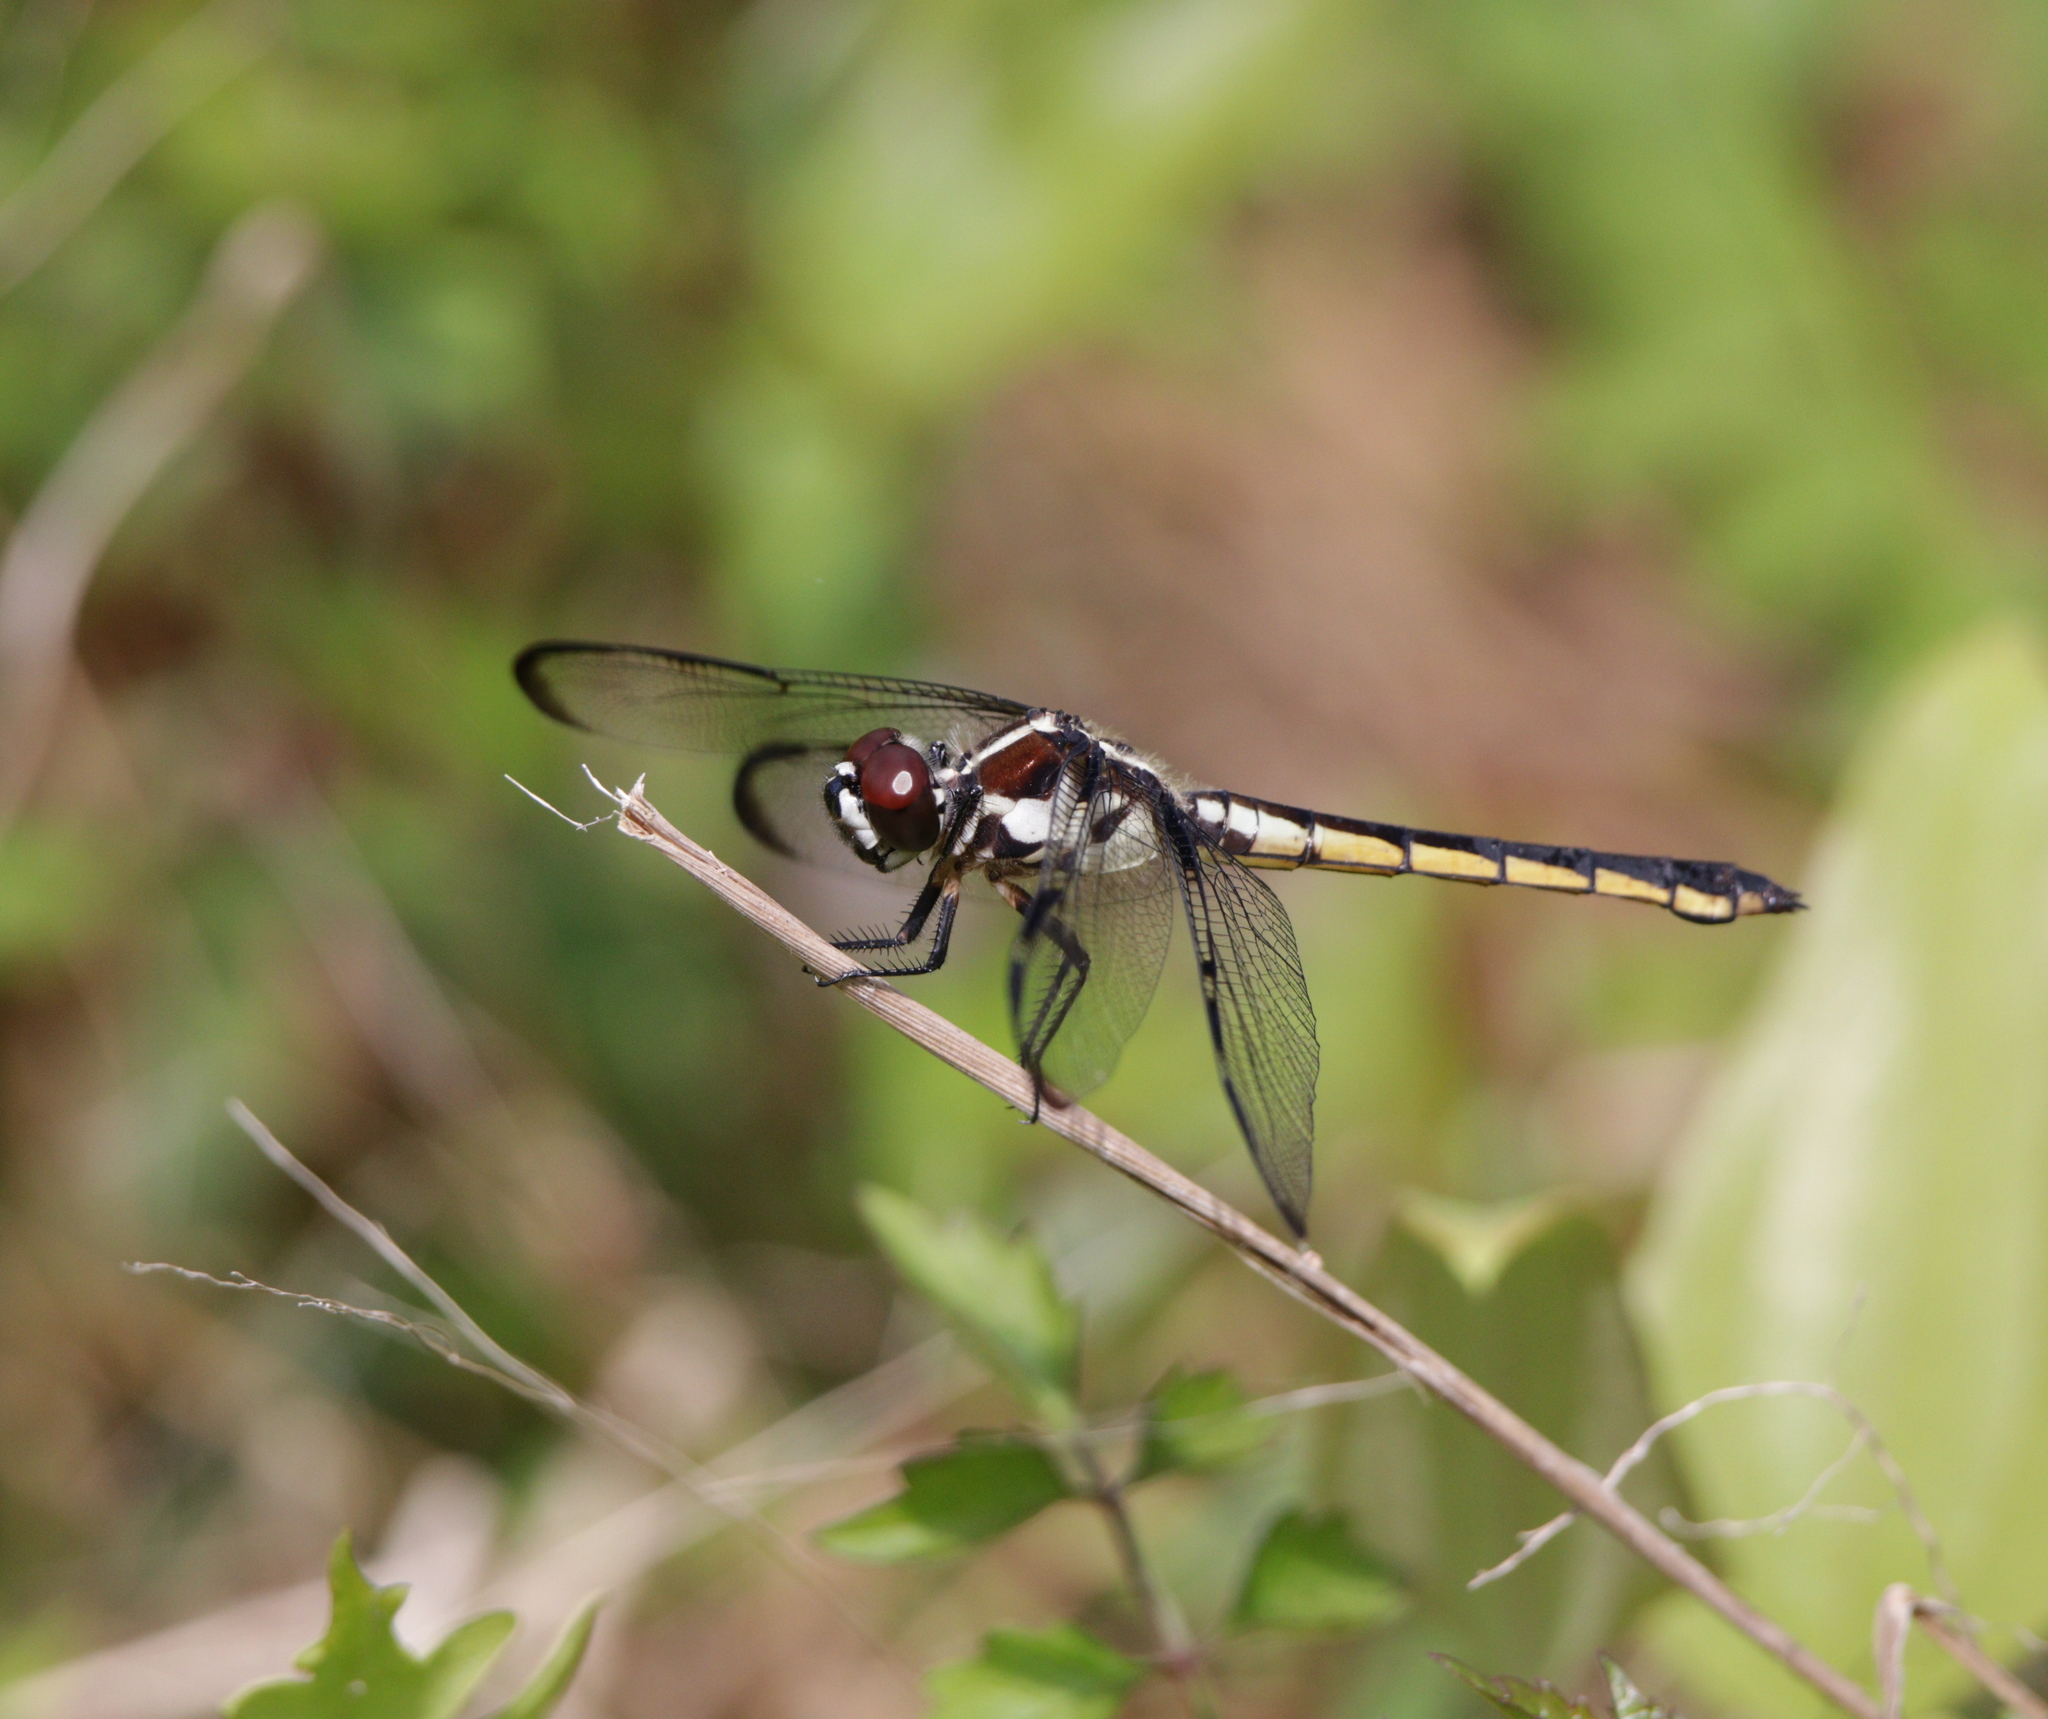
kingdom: Animalia
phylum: Arthropoda
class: Insecta
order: Odonata
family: Libellulidae
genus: Libellula
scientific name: Libellula axilena
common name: Bar-winged skimmer
